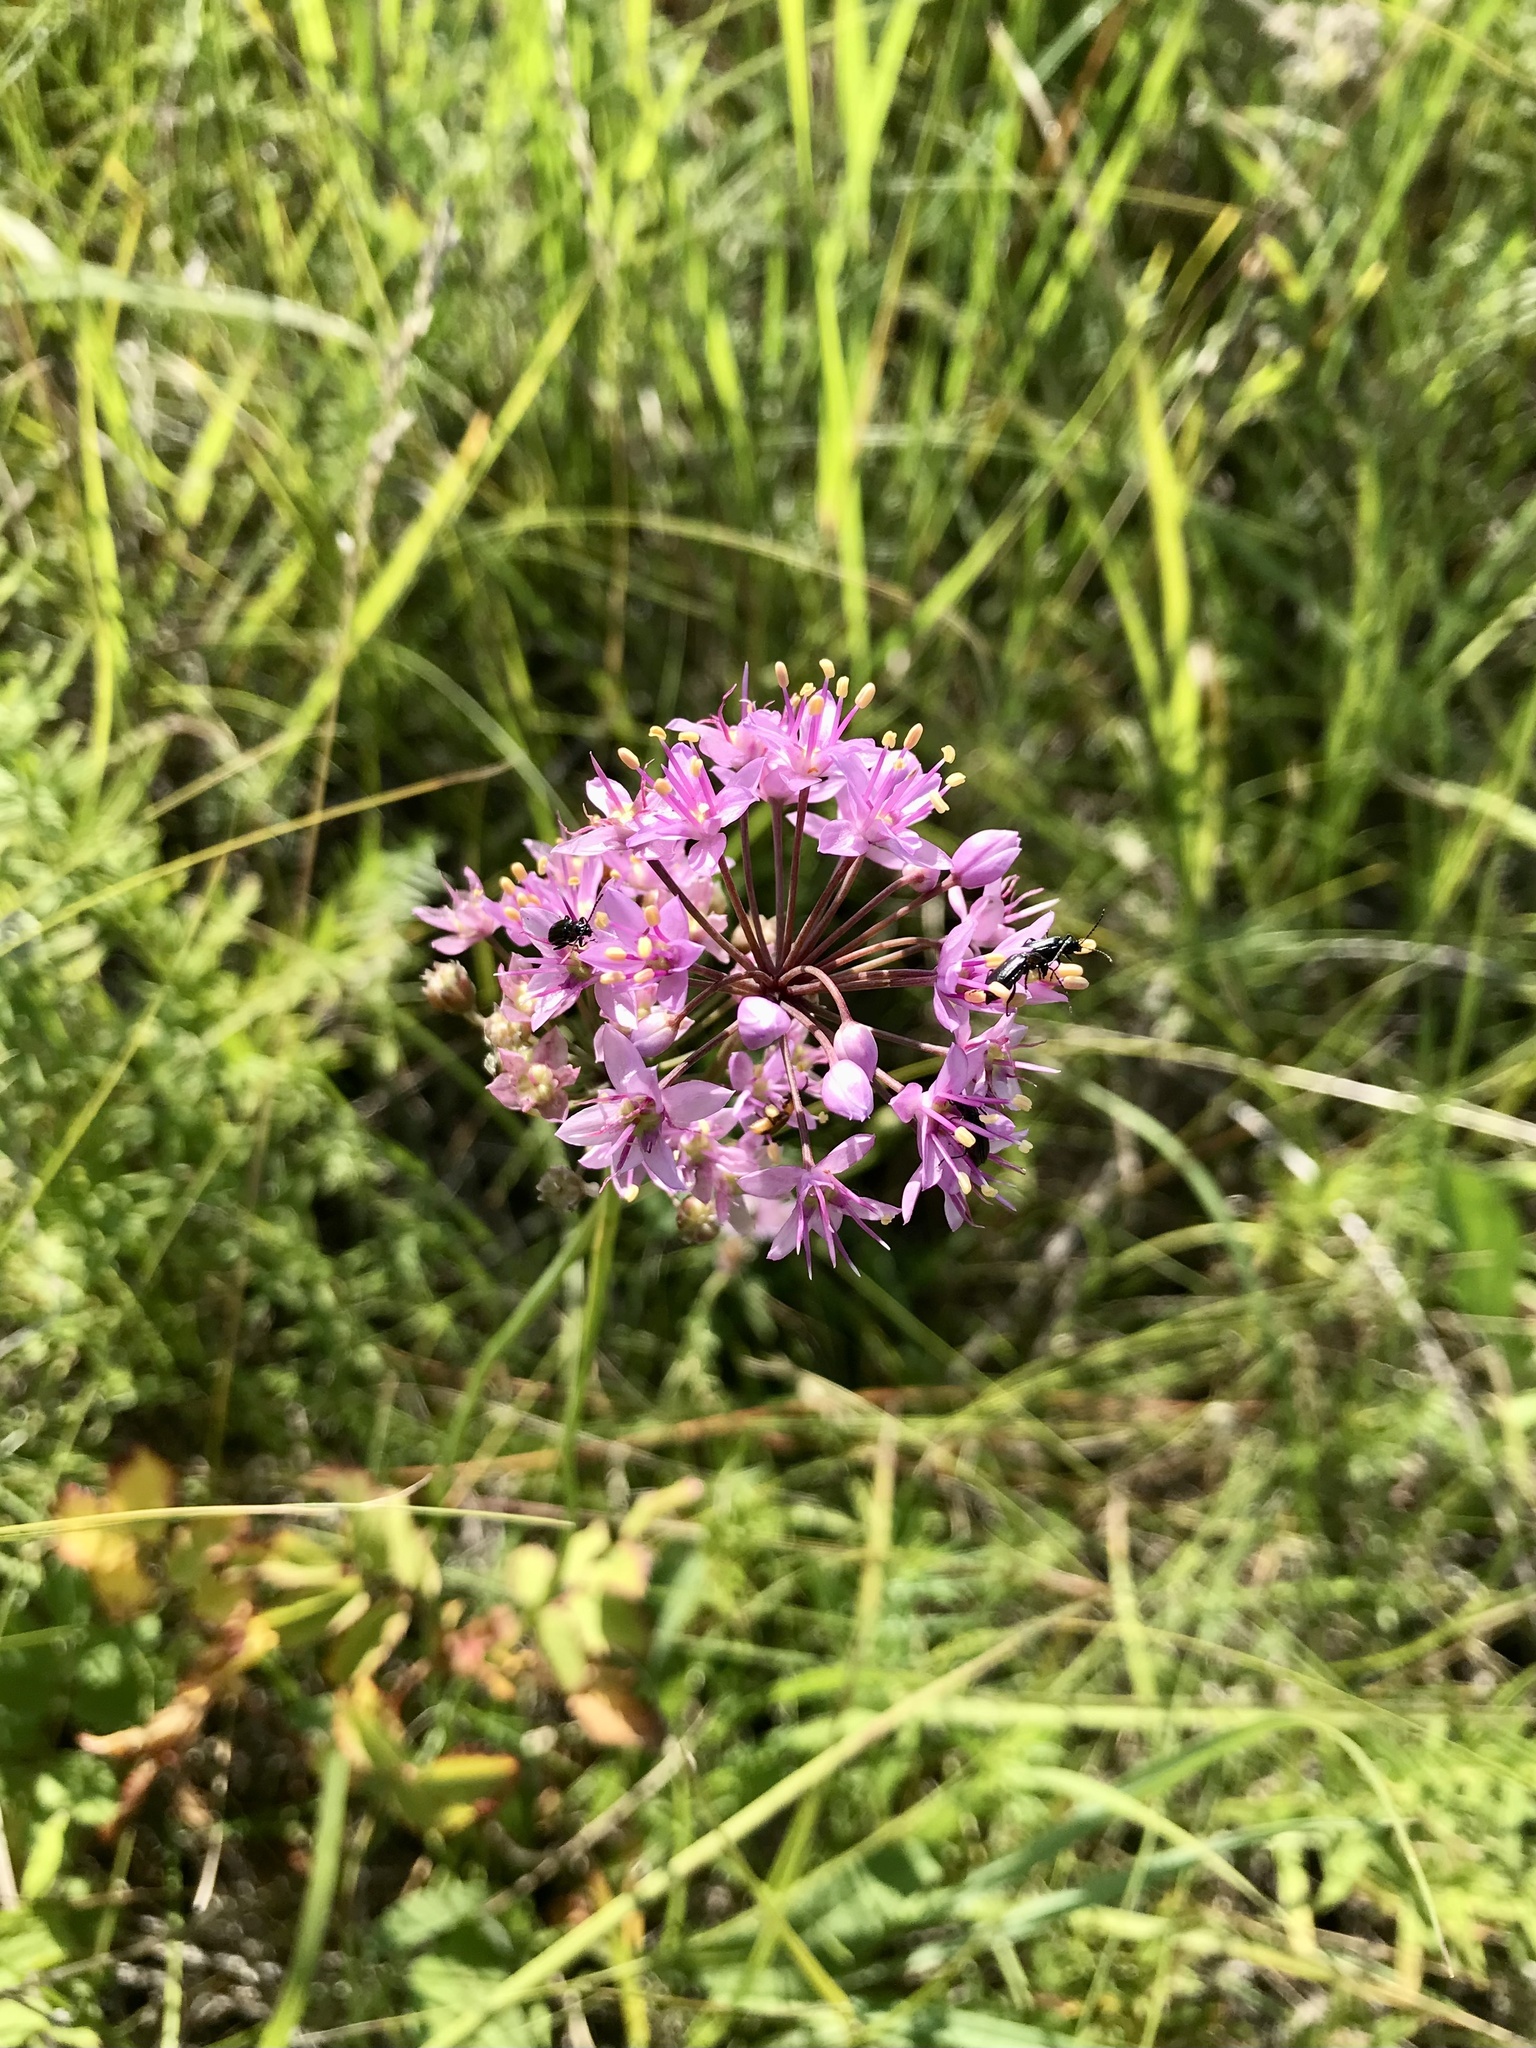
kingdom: Plantae
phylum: Tracheophyta
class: Liliopsida
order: Asparagales
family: Amaryllidaceae
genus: Allium
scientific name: Allium stellatum
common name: Autumn onion
